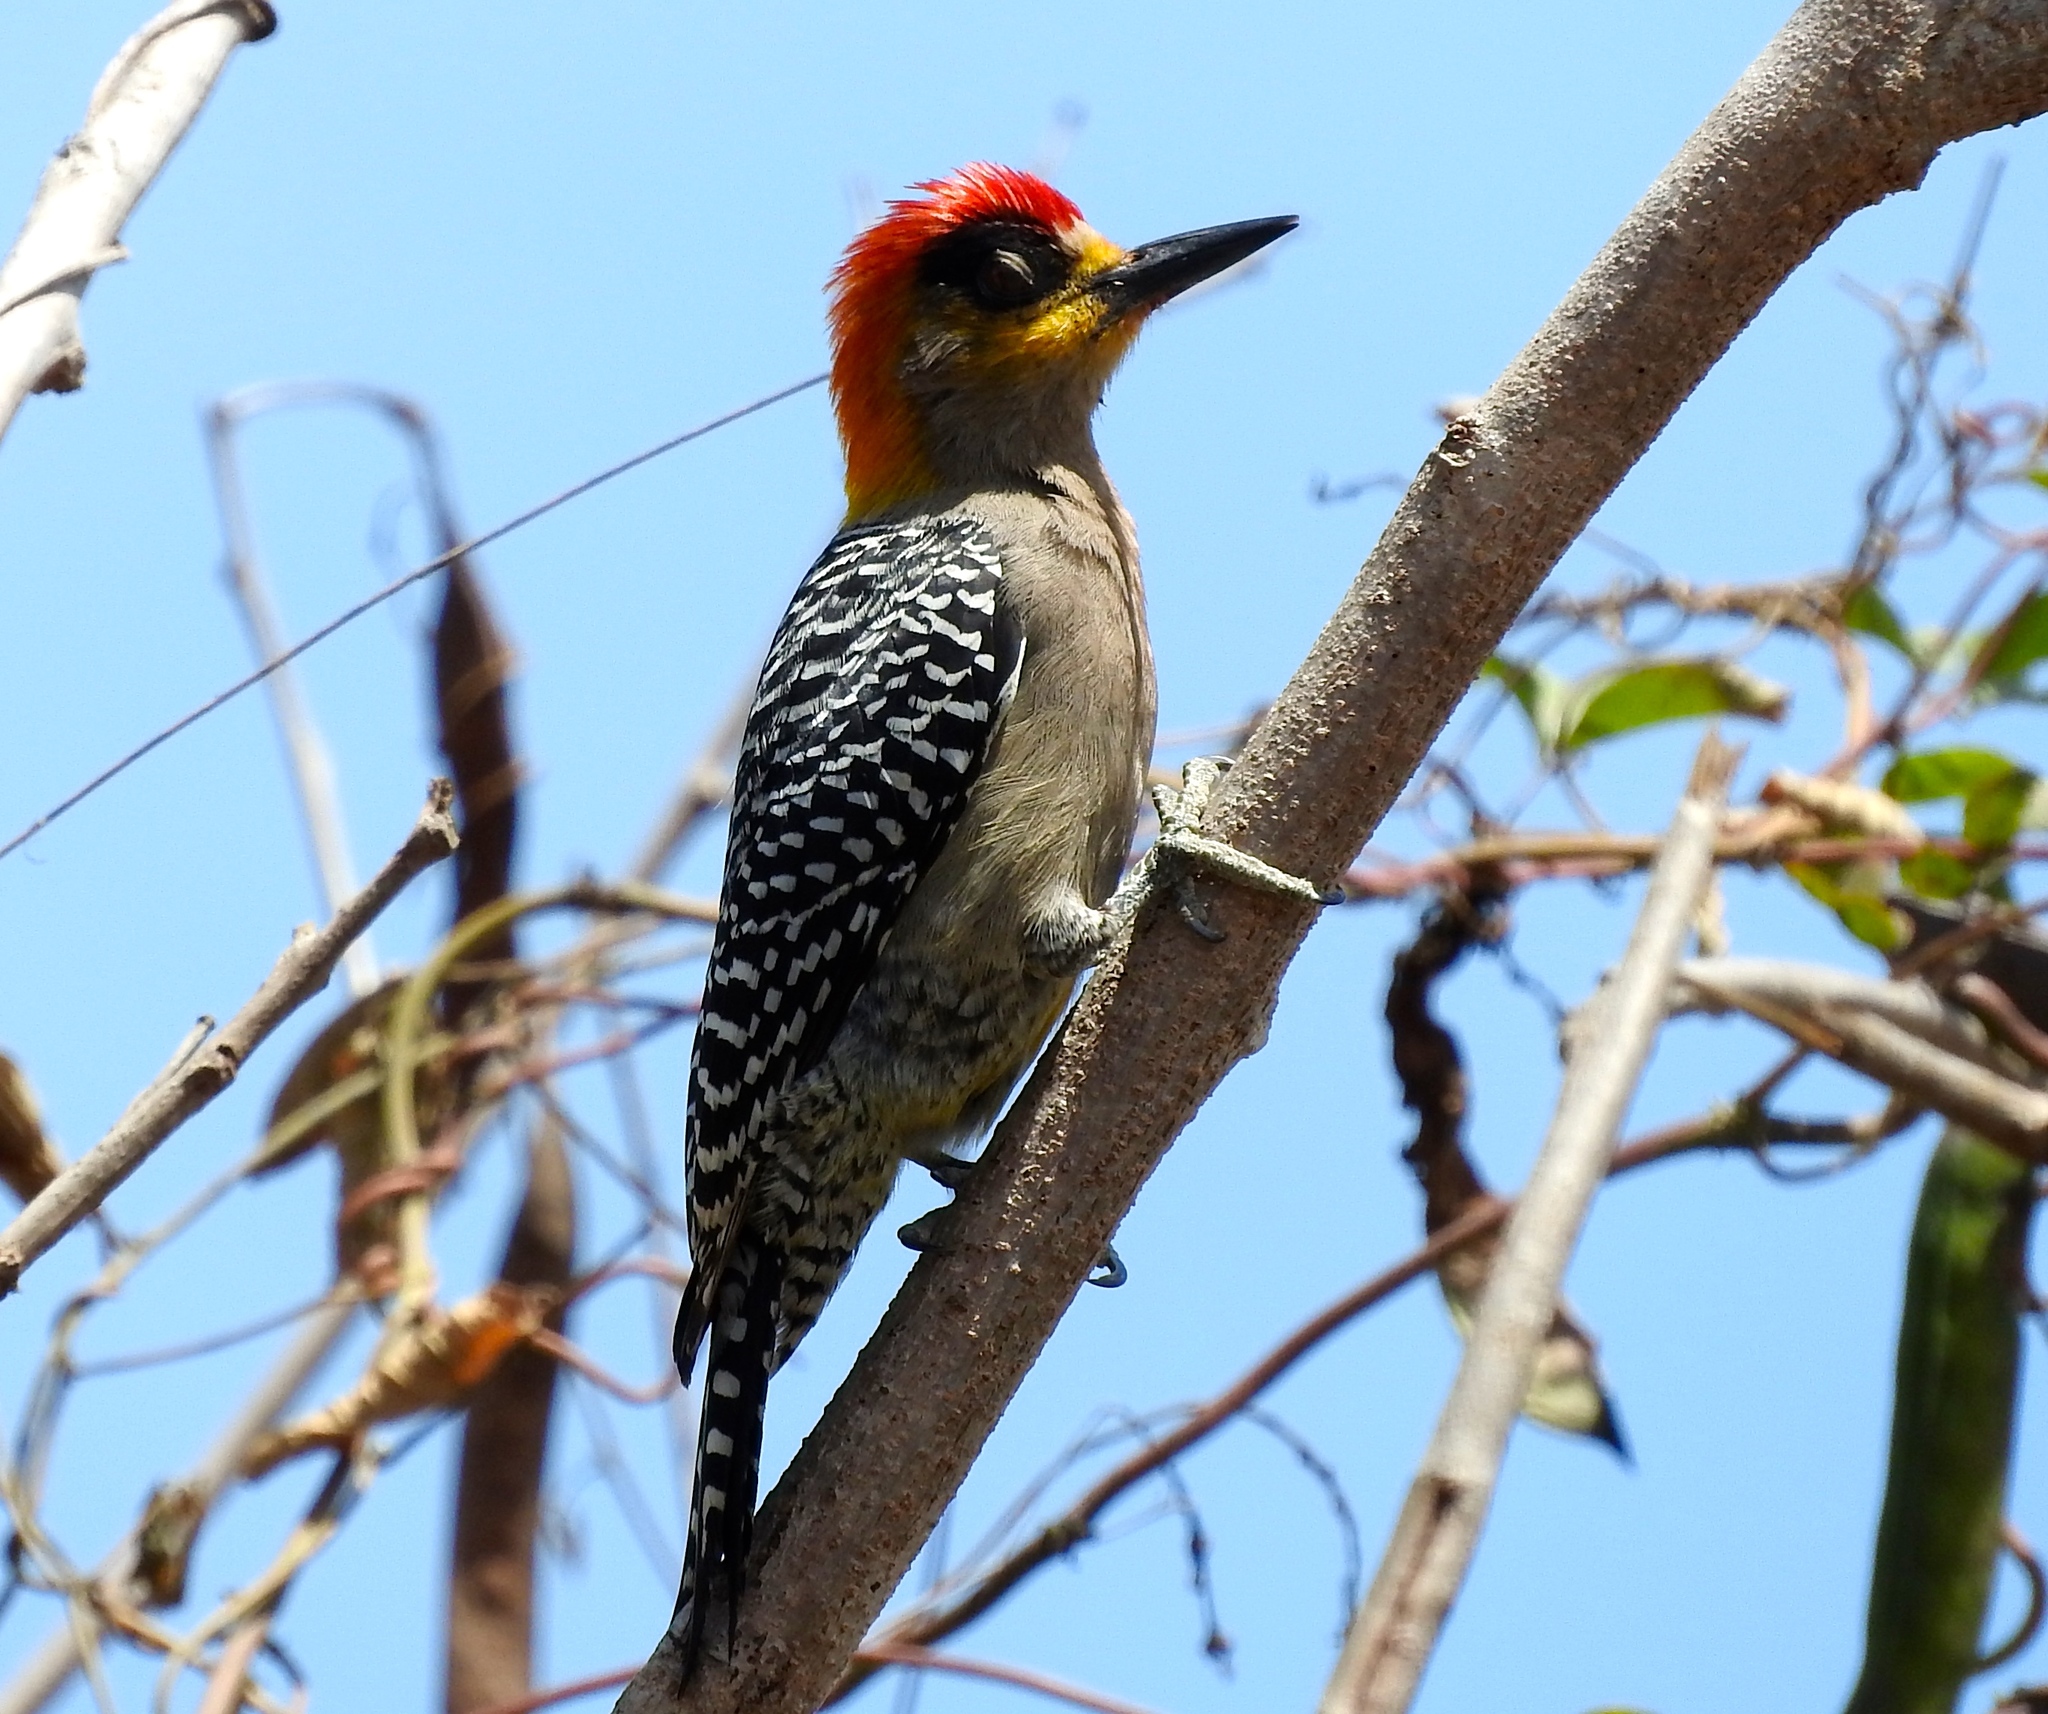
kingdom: Animalia
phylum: Chordata
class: Aves
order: Piciformes
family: Picidae
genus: Melanerpes
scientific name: Melanerpes chrysogenys
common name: Golden-cheeked woodpecker
